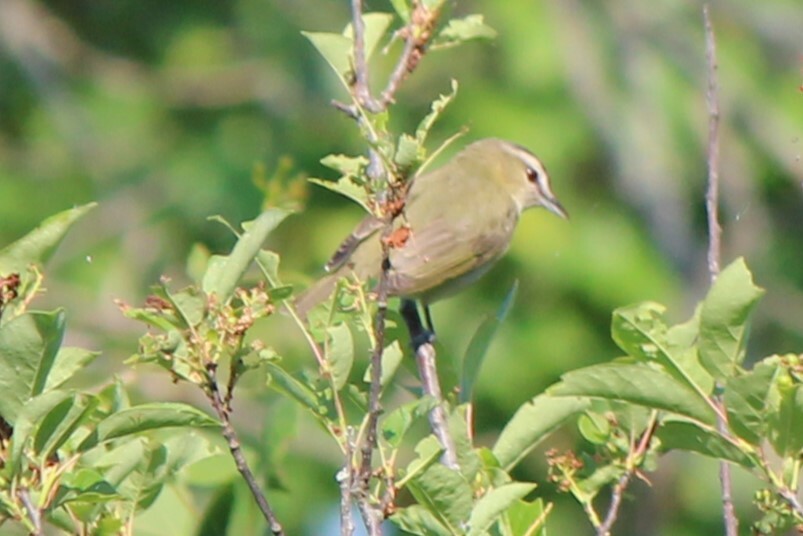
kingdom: Animalia
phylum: Chordata
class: Aves
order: Passeriformes
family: Vireonidae
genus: Vireo
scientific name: Vireo olivaceus
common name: Red-eyed vireo
